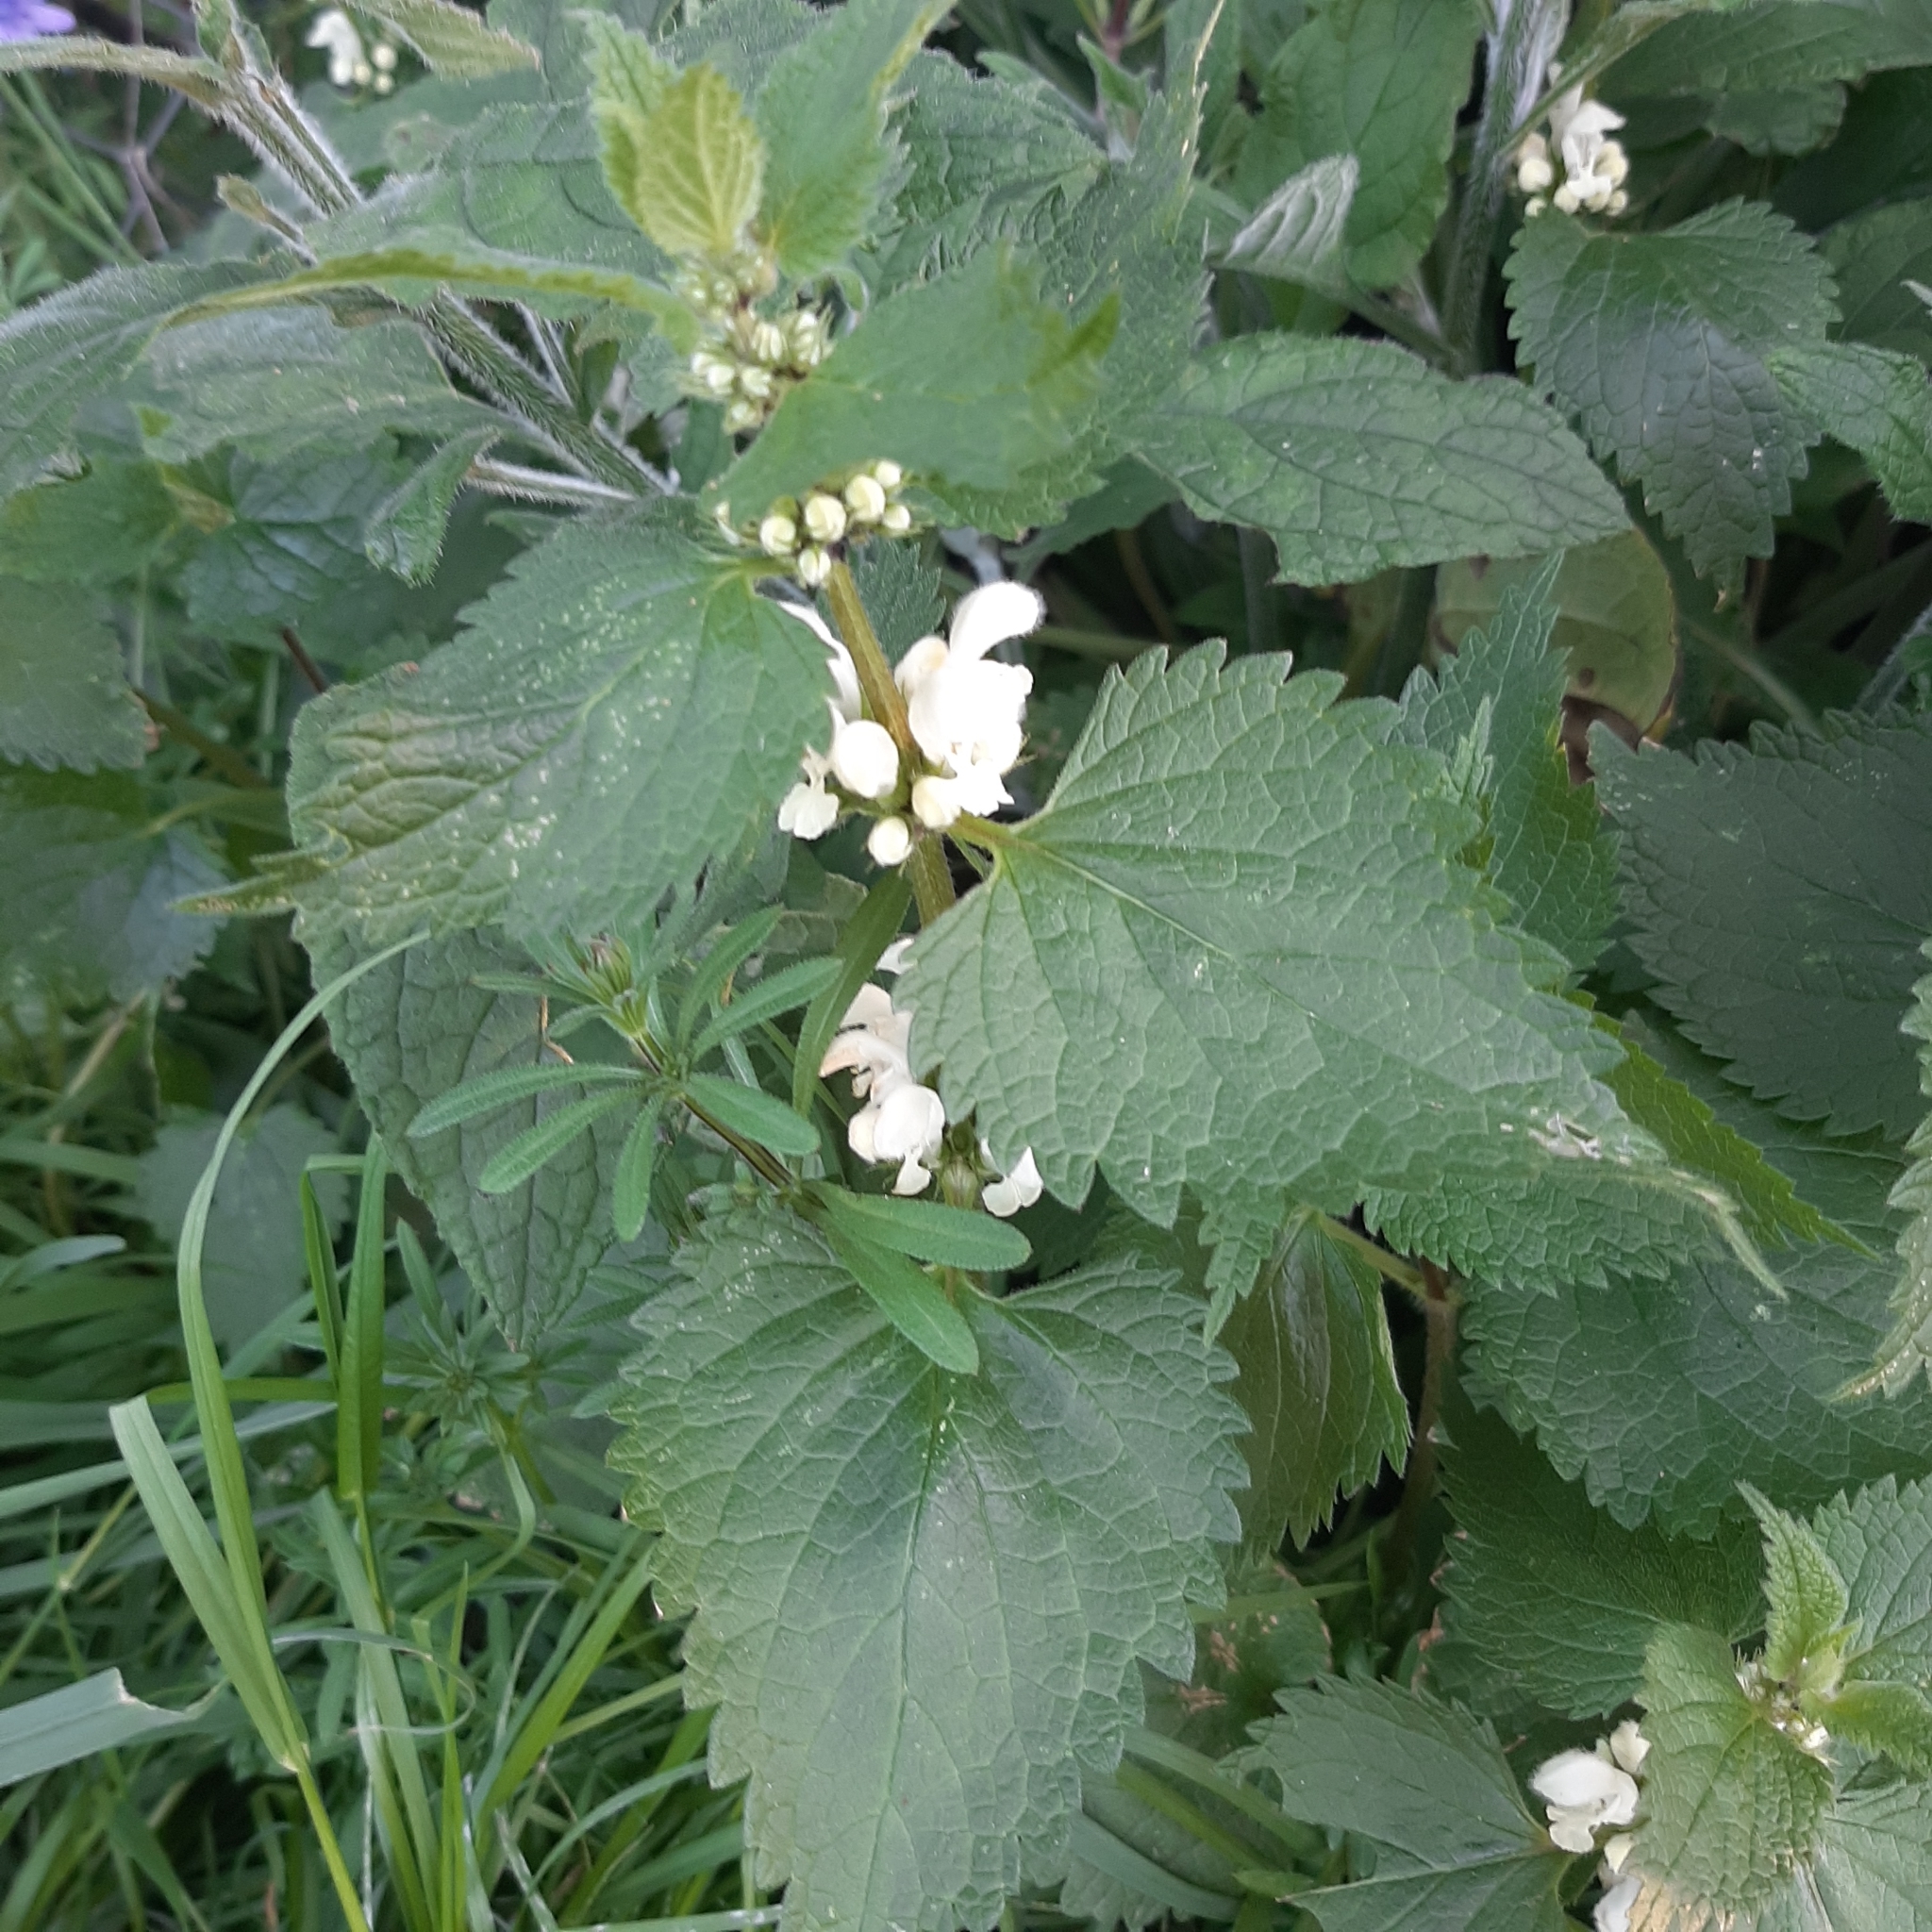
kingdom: Plantae
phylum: Tracheophyta
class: Magnoliopsida
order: Lamiales
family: Lamiaceae
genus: Lamium
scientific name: Lamium album
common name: White dead-nettle
